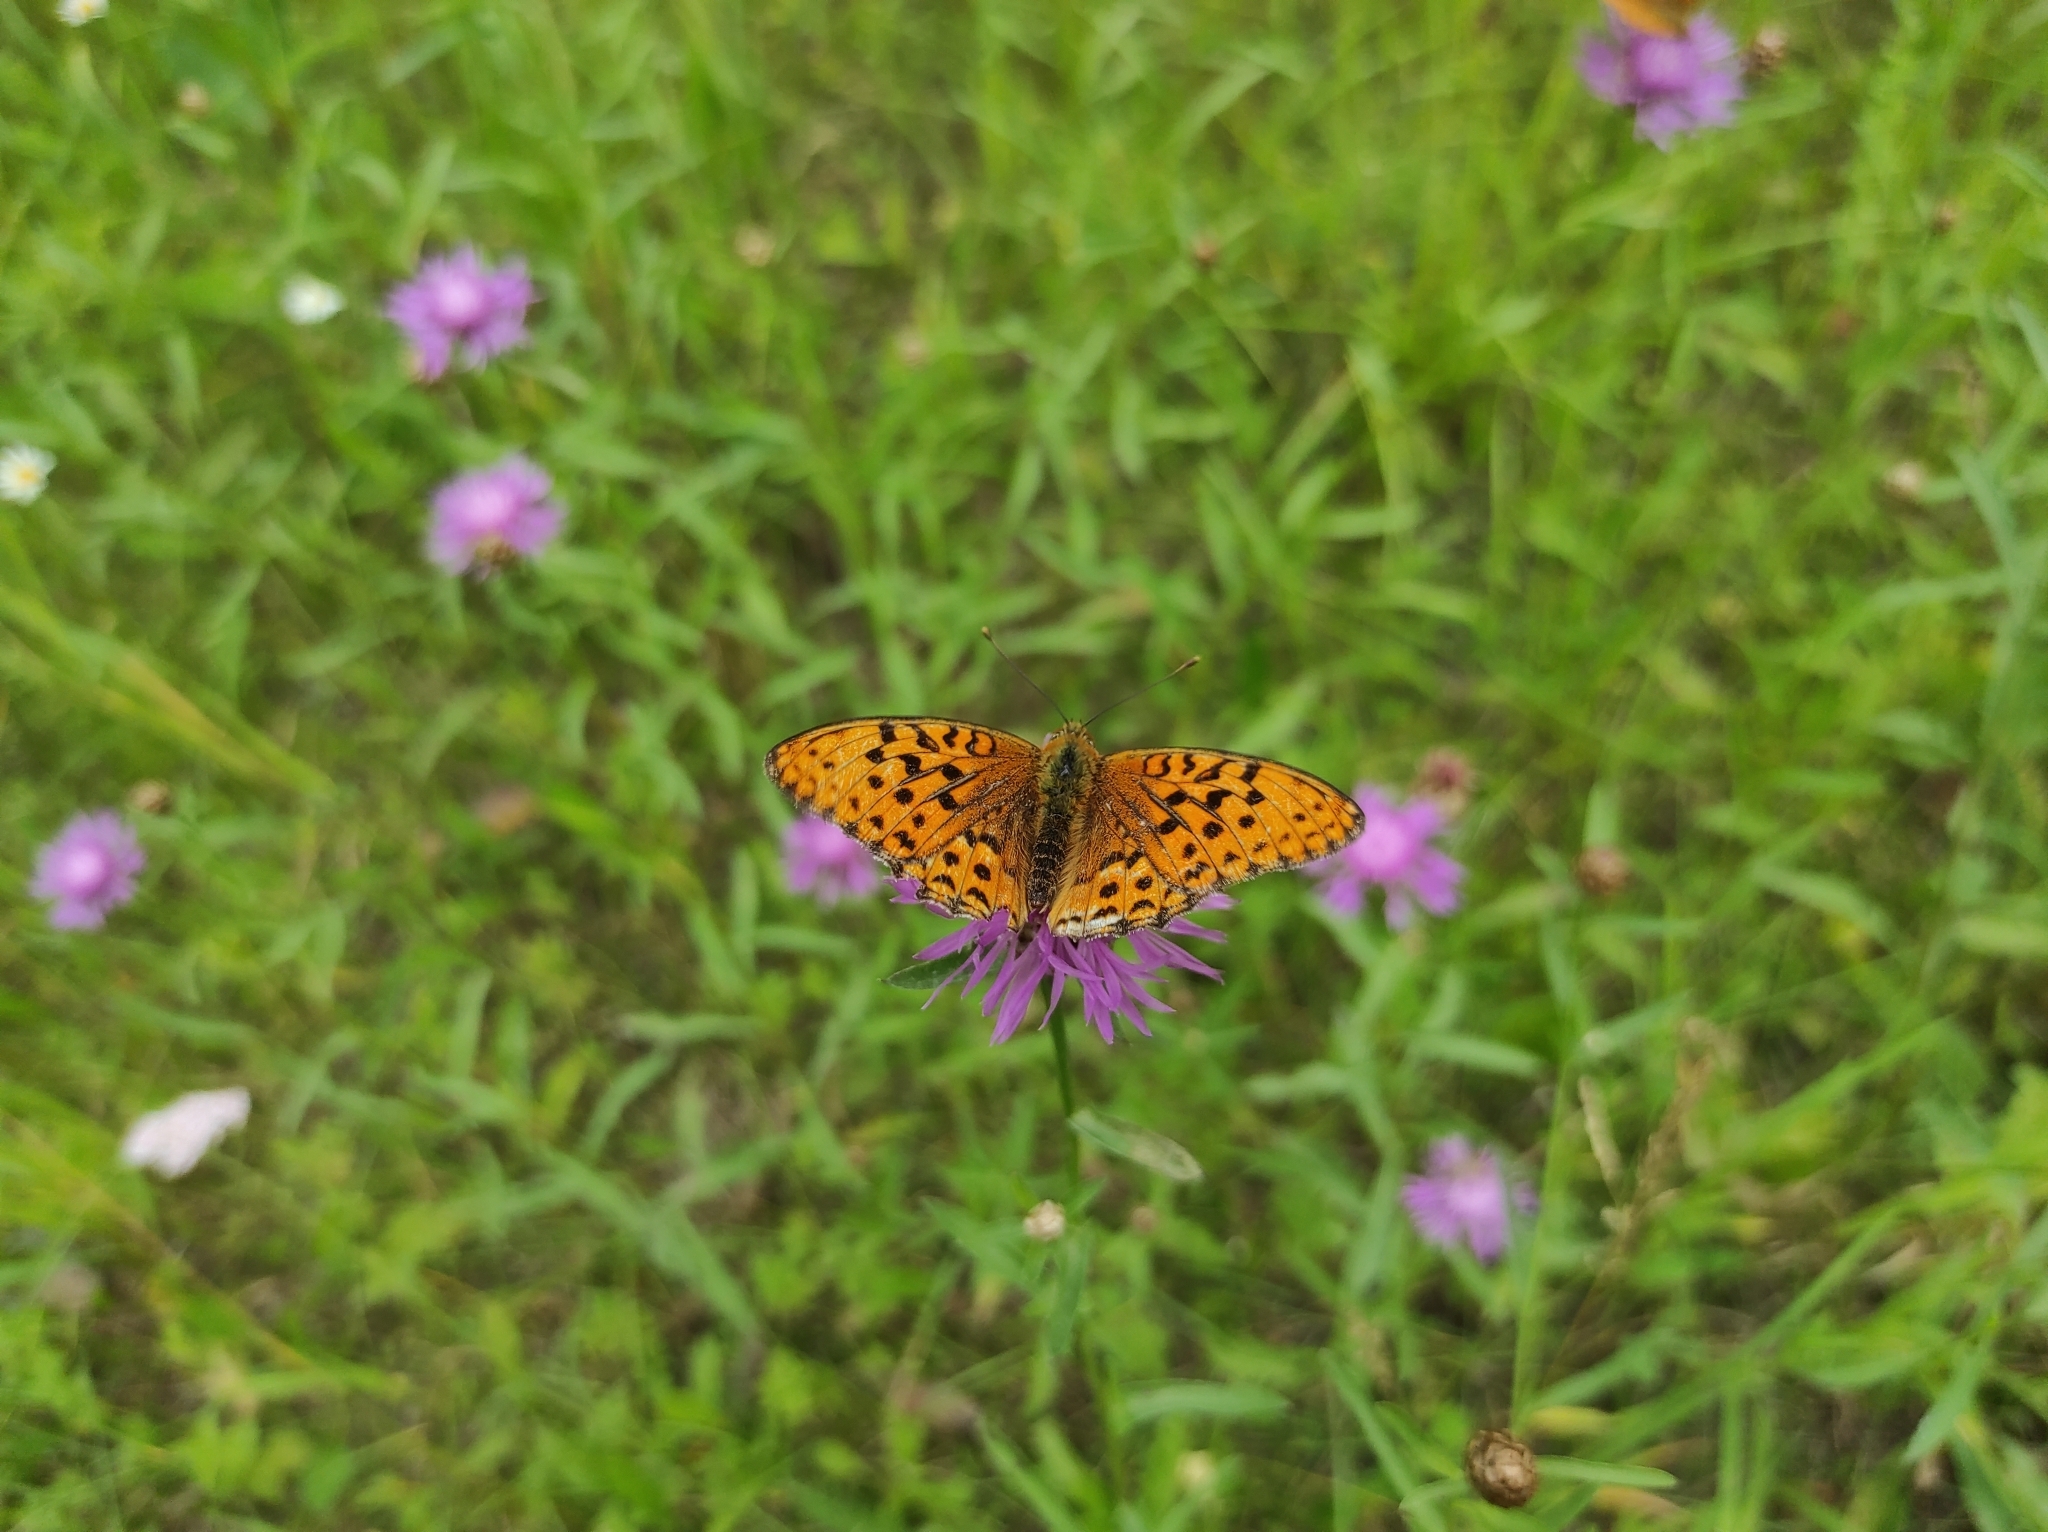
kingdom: Plantae
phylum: Tracheophyta
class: Magnoliopsida
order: Asterales
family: Asteraceae
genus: Centaurea
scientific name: Centaurea jacea
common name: Brown knapweed
